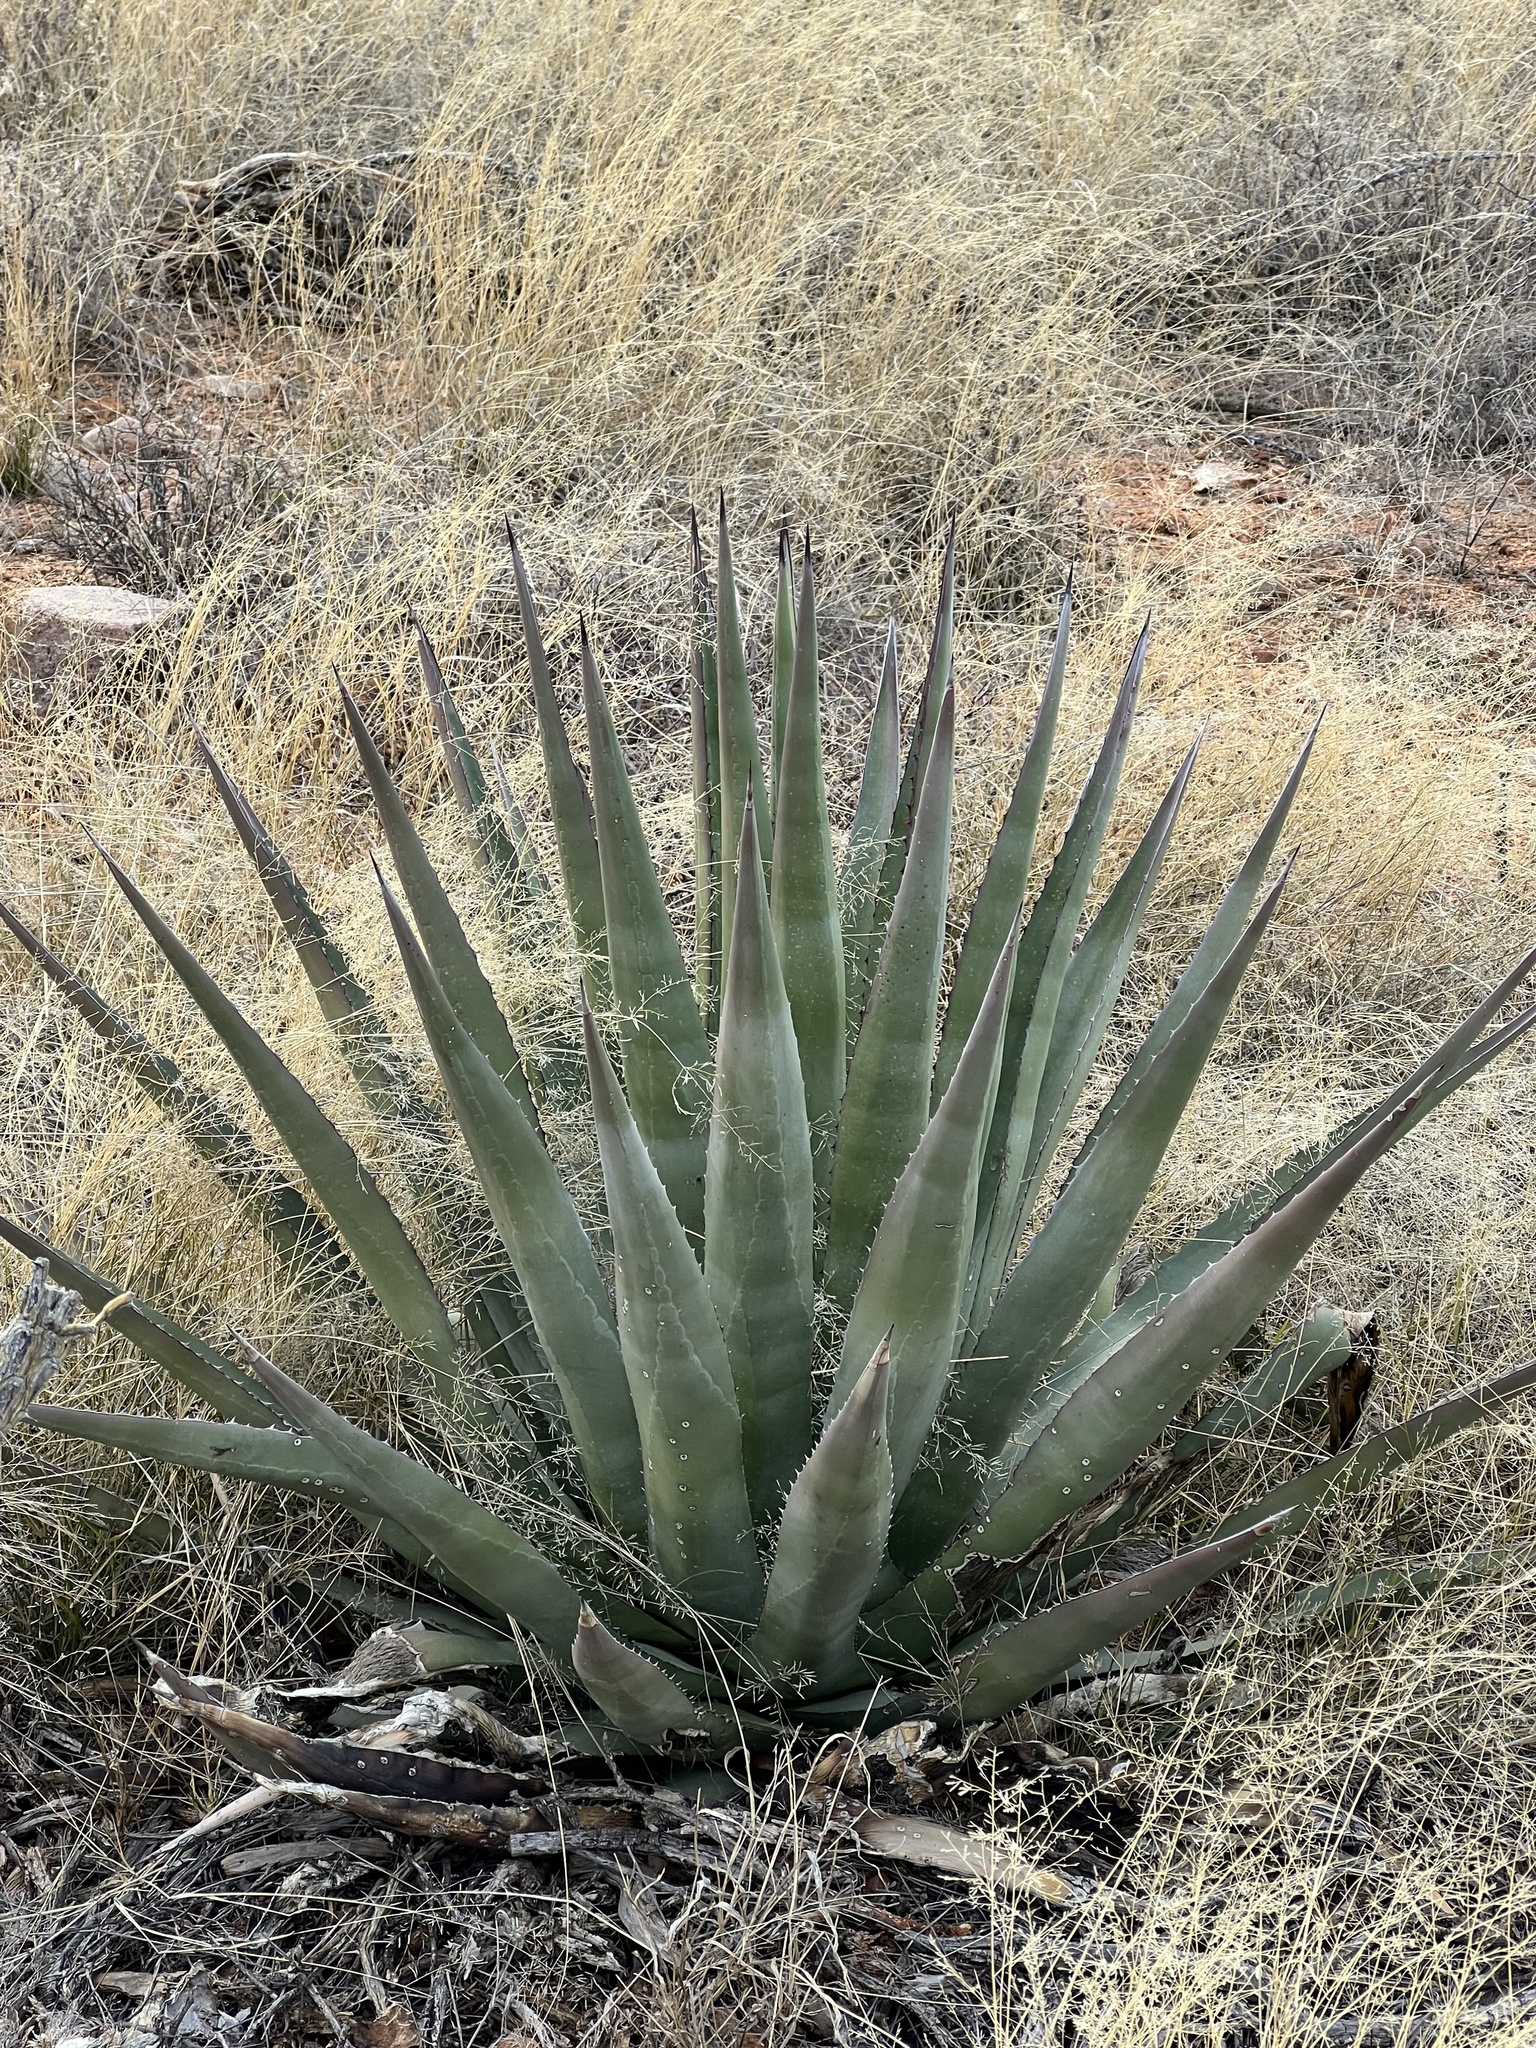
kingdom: Plantae
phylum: Tracheophyta
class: Liliopsida
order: Asparagales
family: Asparagaceae
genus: Agave
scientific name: Agave palmeri
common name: Palmer agave
